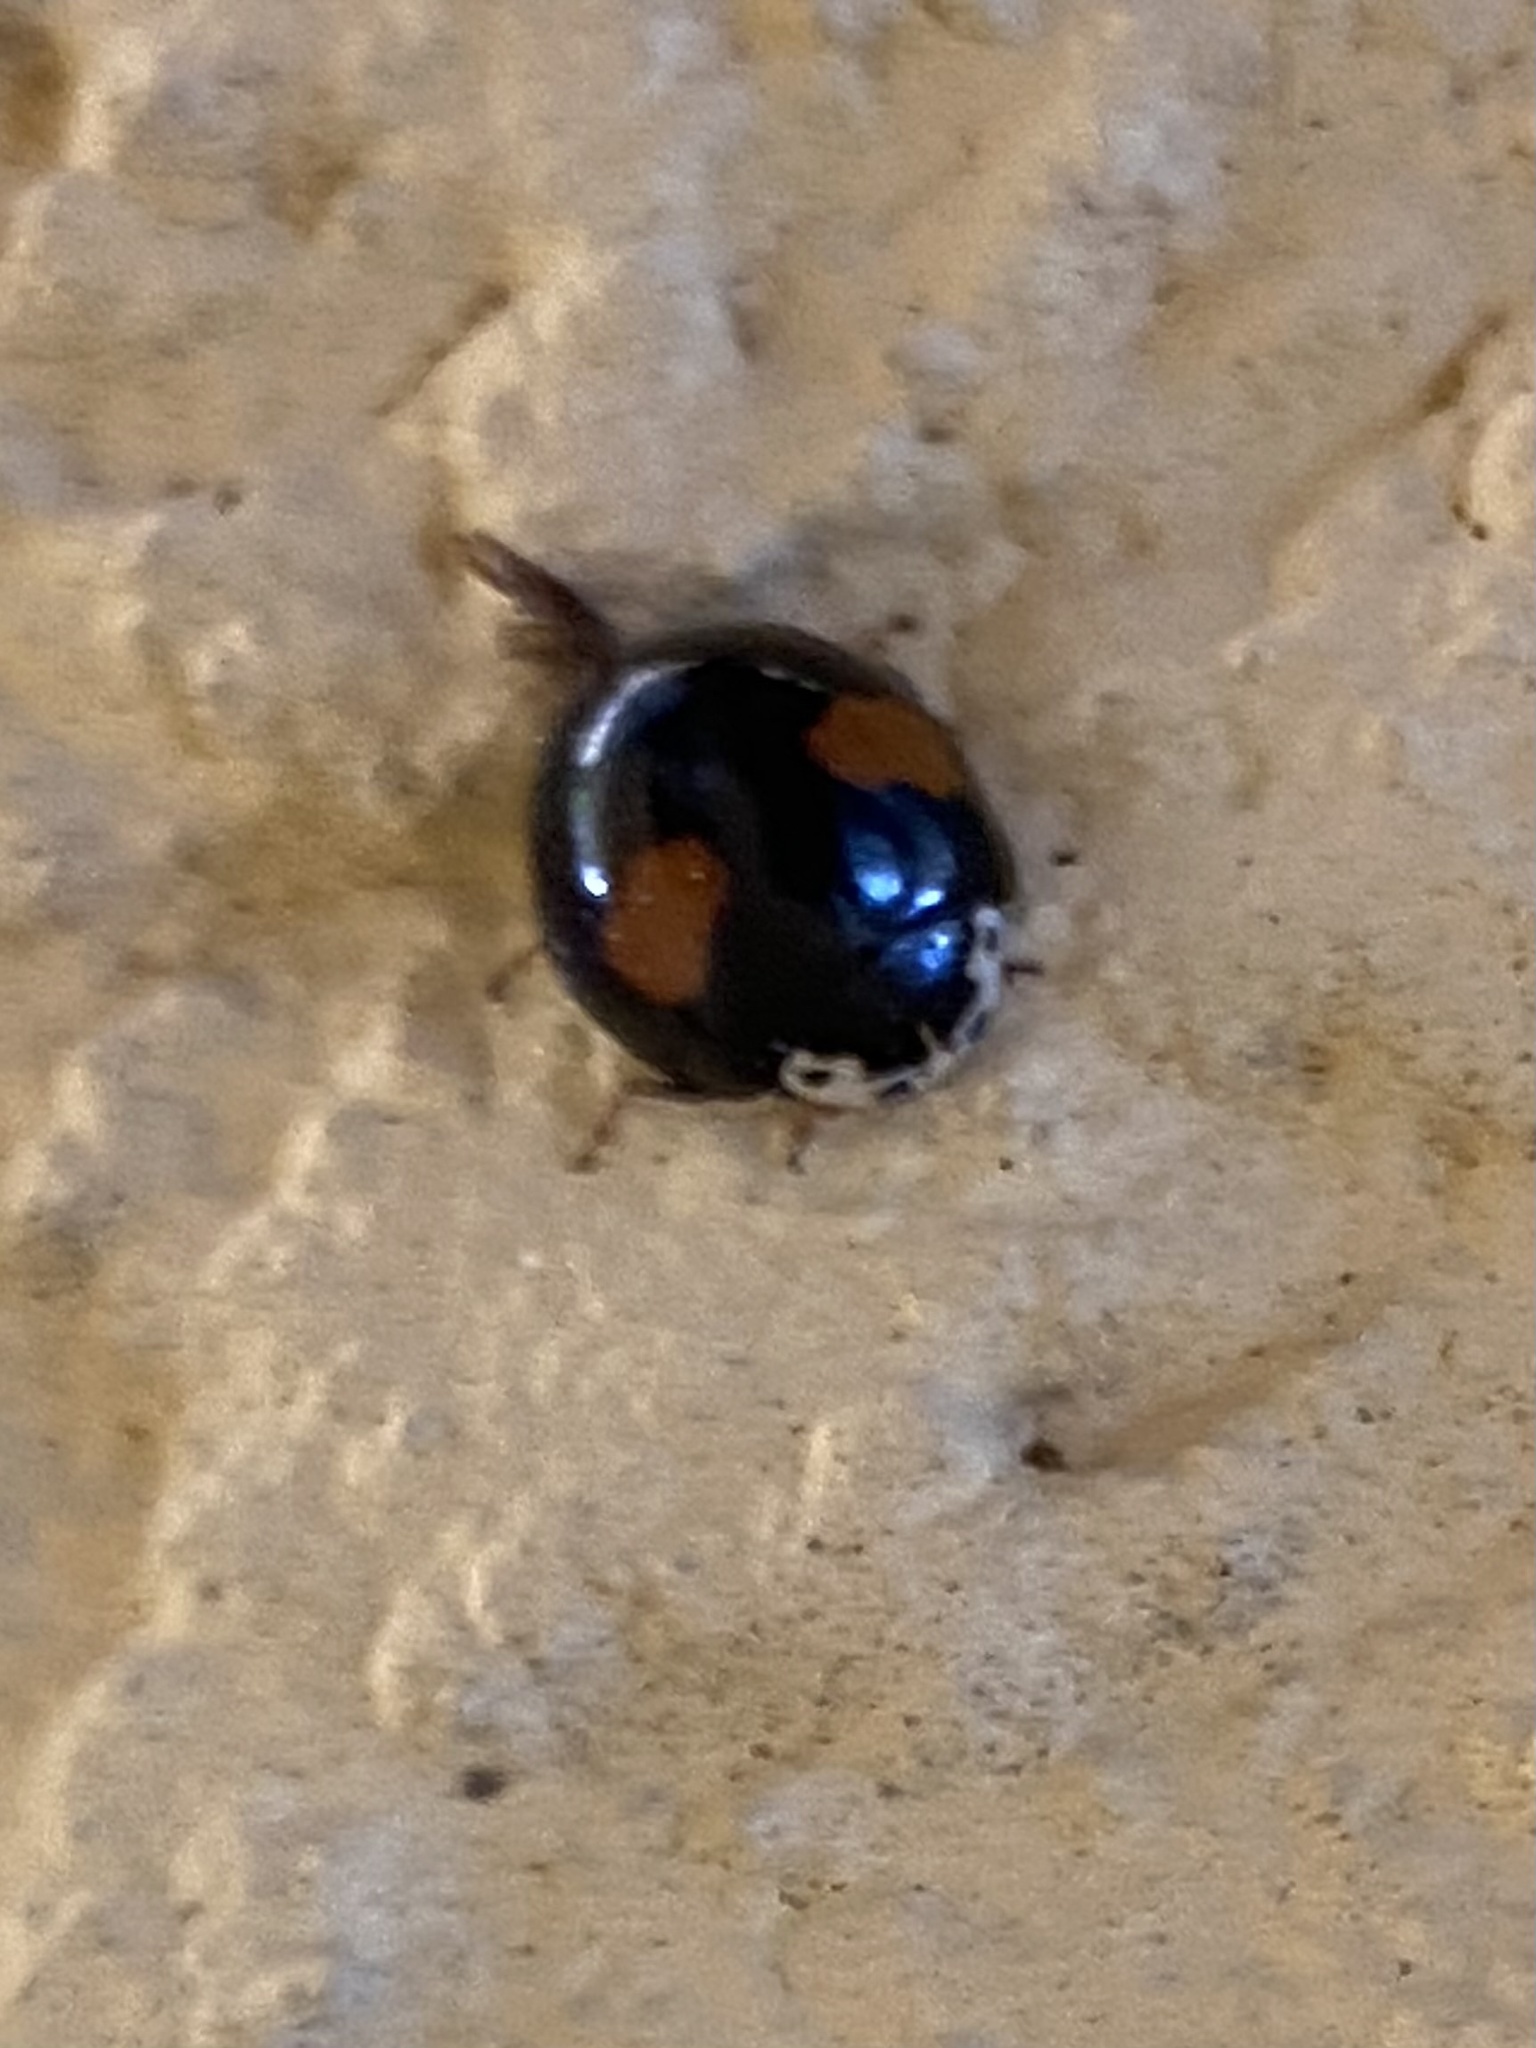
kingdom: Animalia
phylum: Arthropoda
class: Insecta
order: Coleoptera
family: Coccinellidae
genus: Olla
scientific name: Olla v-nigrum
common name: Ashy gray lady beetle
